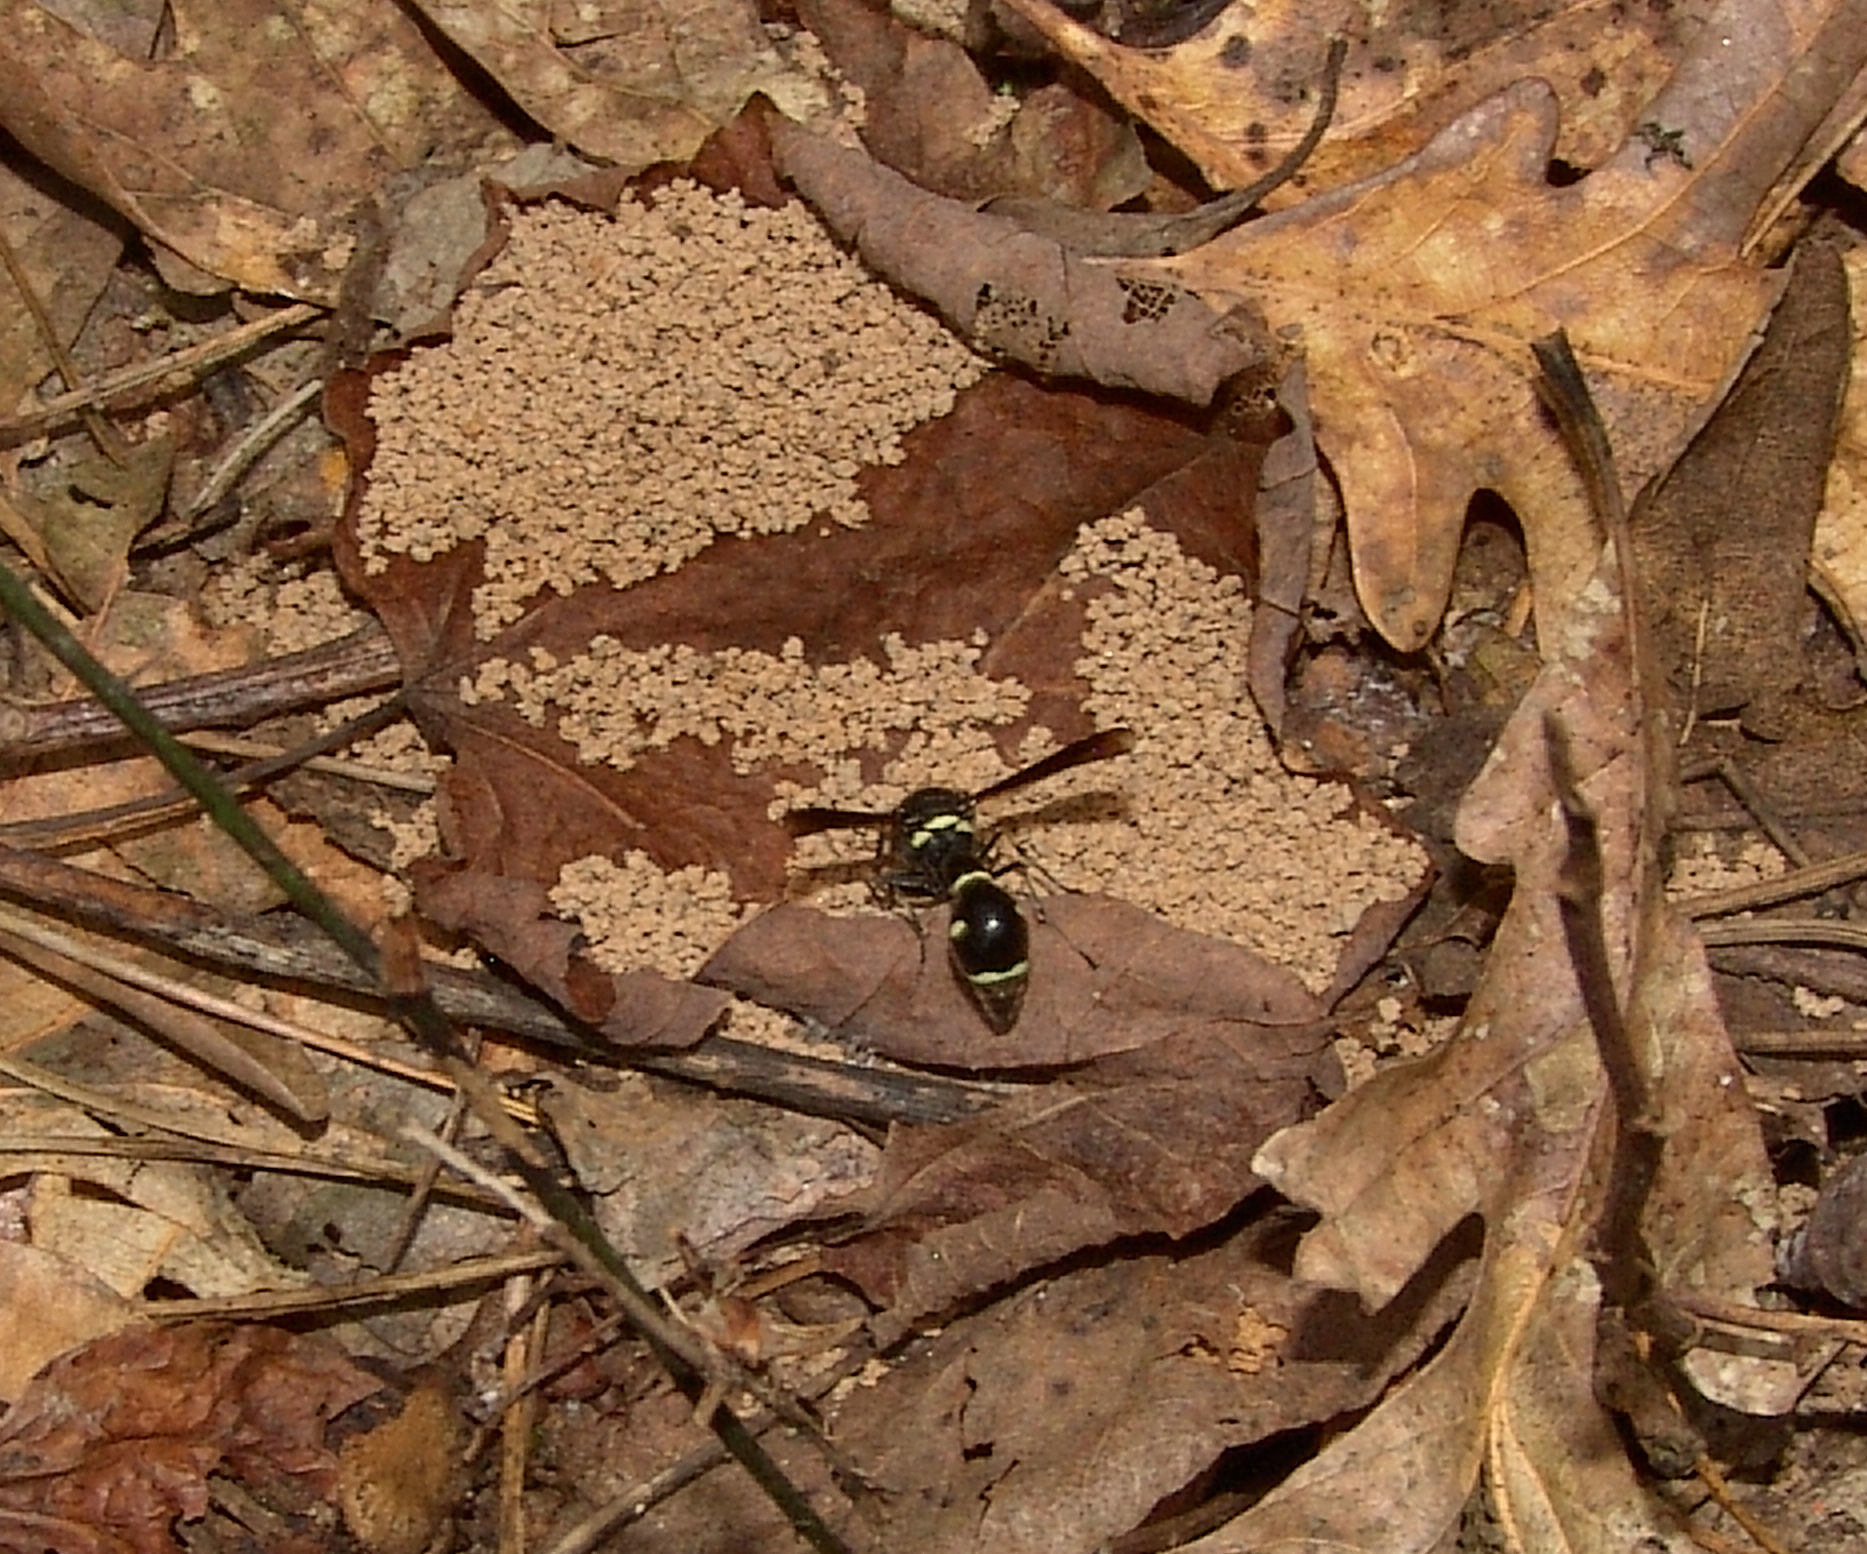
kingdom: Animalia
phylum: Arthropoda
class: Insecta
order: Hymenoptera
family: Vespidae
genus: Eumenes
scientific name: Eumenes fraternus
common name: Fraternal potter wasp
